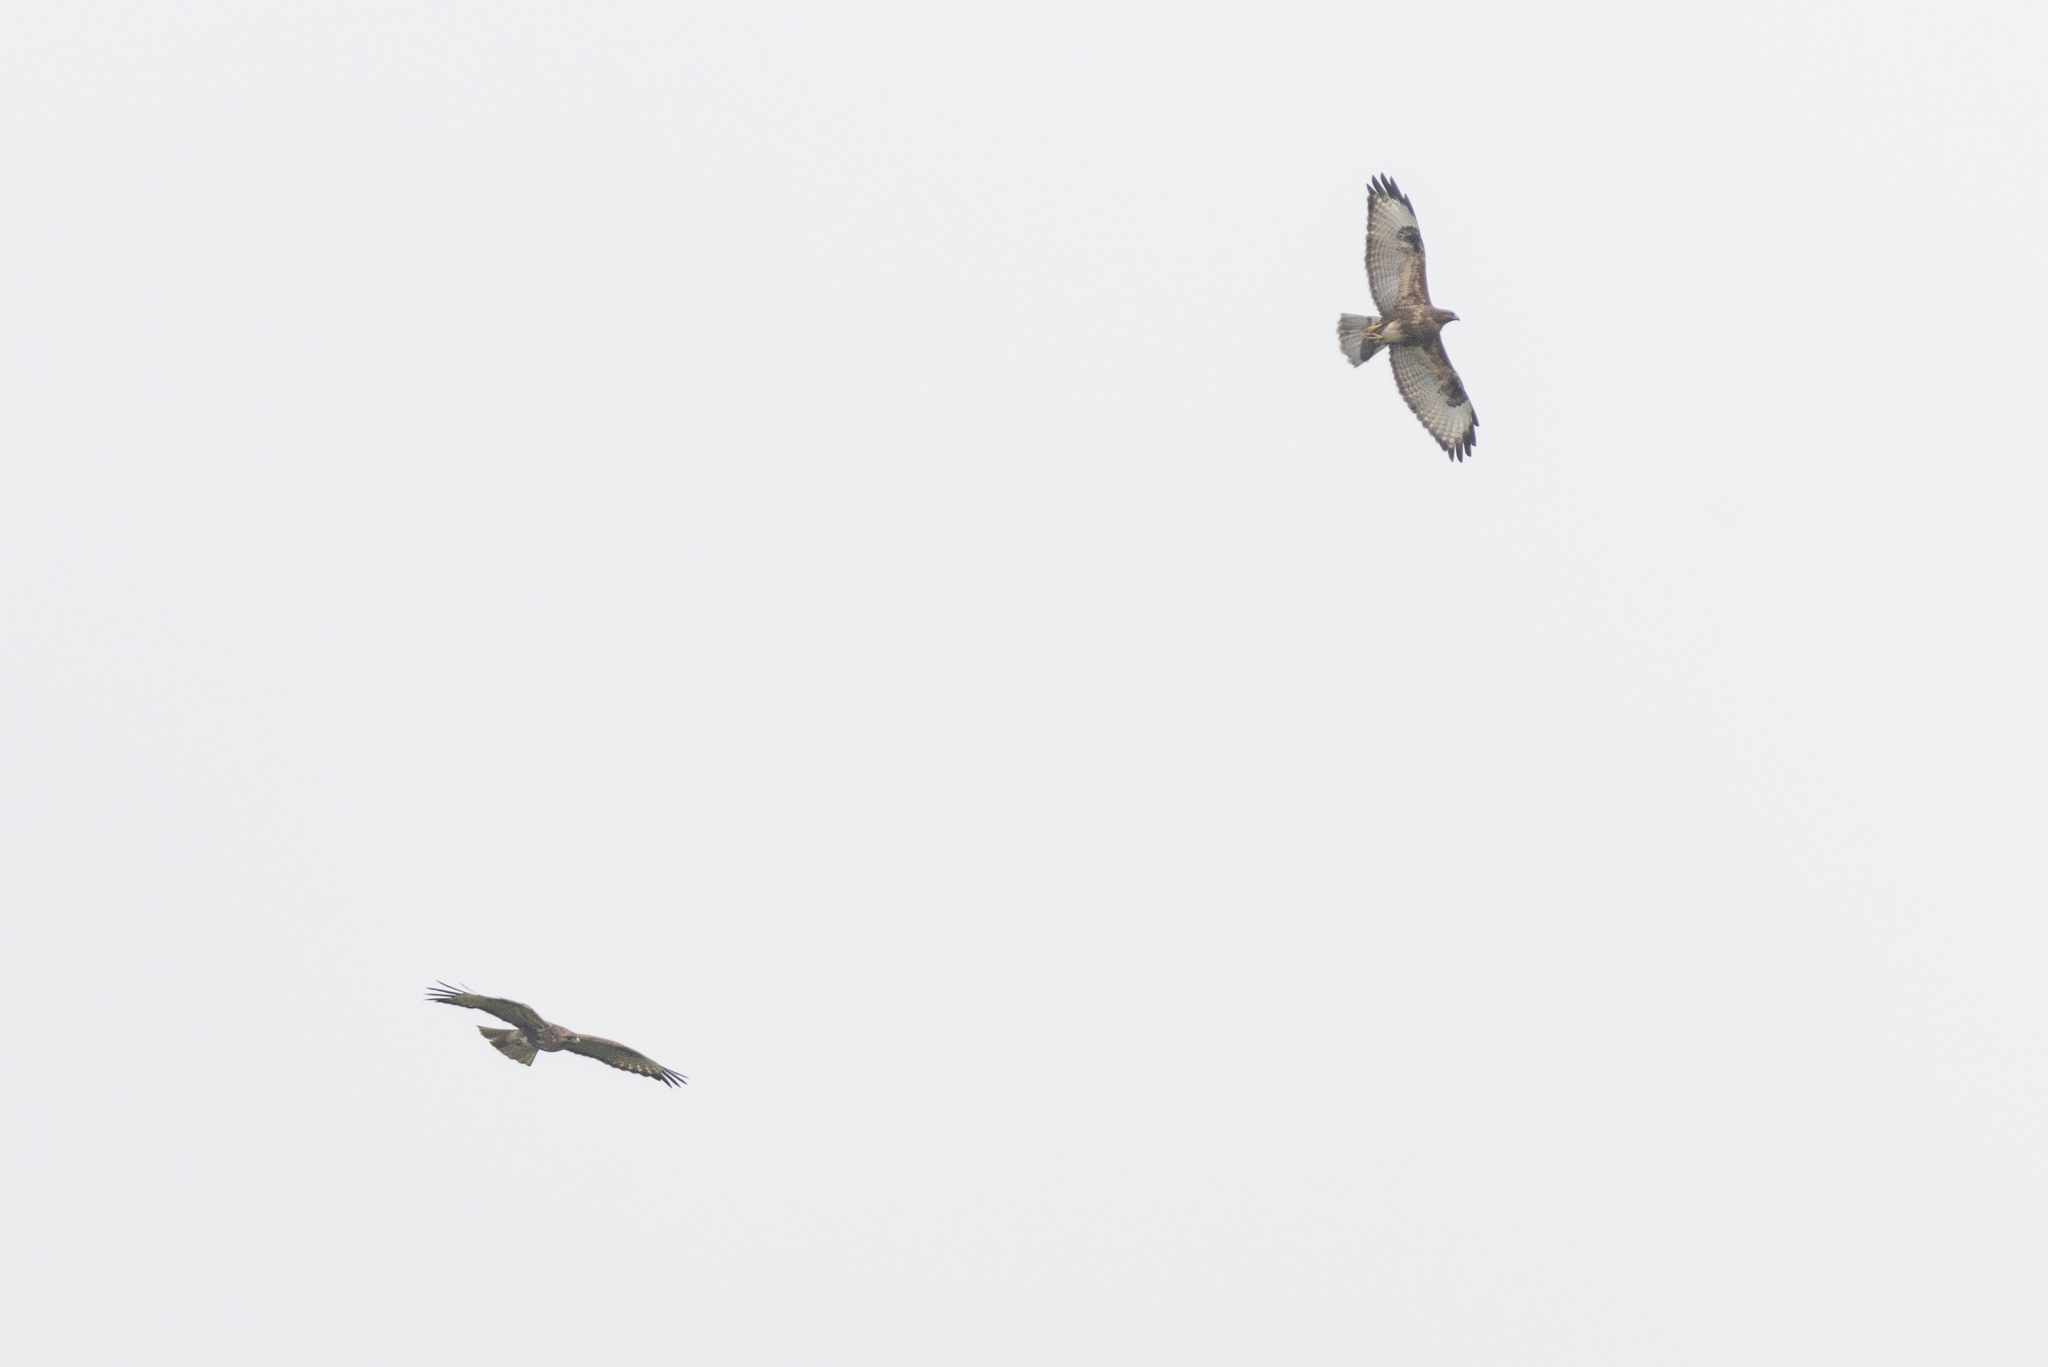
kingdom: Animalia
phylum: Chordata
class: Aves
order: Accipitriformes
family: Accipitridae
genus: Buteo
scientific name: Buteo japonicus
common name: Eastern buzzard
